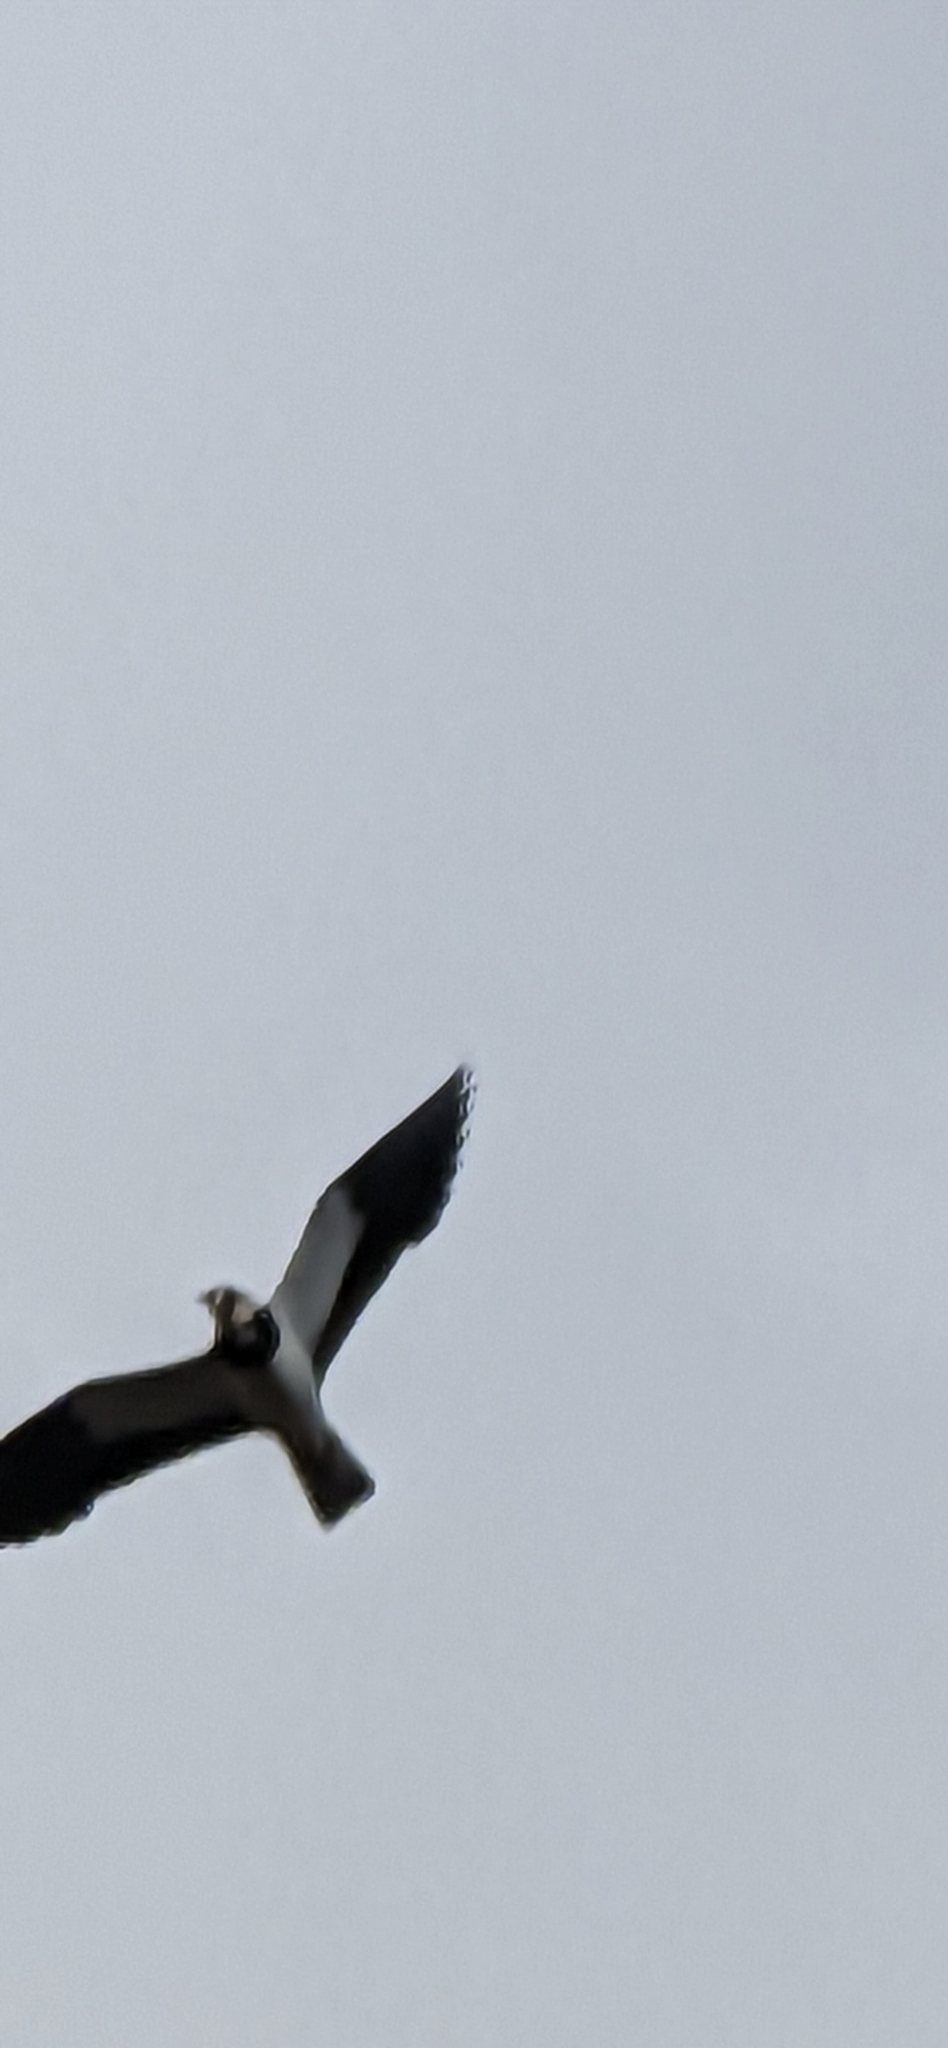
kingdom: Animalia
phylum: Chordata
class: Aves
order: Charadriiformes
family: Charadriidae
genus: Vanellus
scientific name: Vanellus vanellus
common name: Northern lapwing
